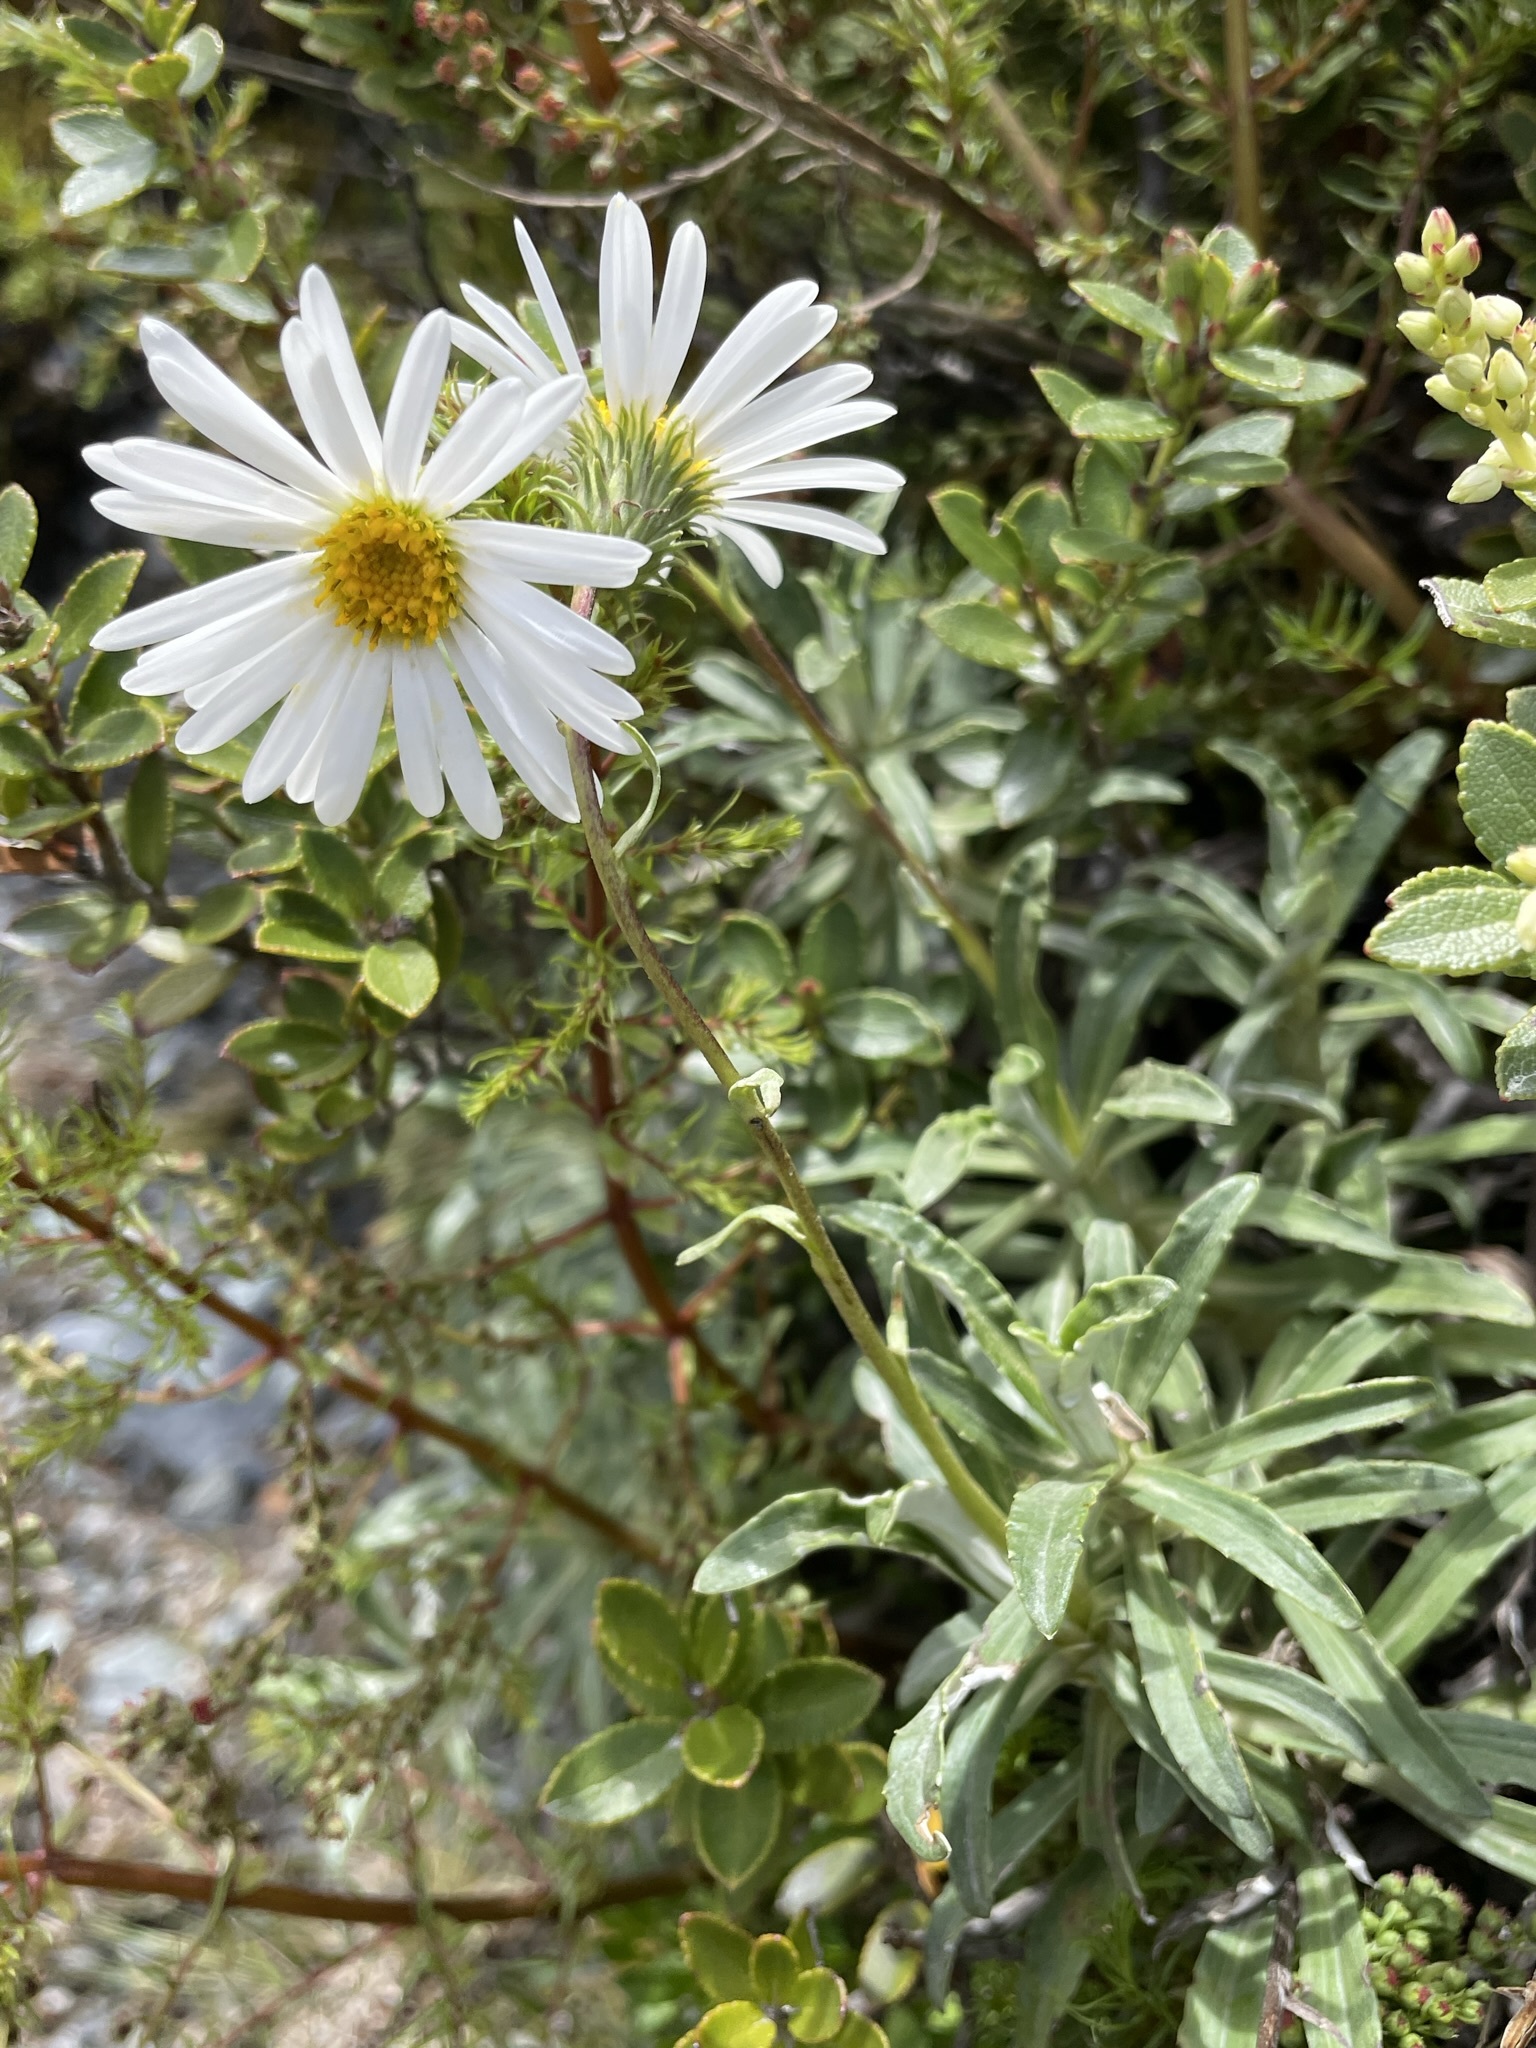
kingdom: Plantae
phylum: Tracheophyta
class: Magnoliopsida
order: Asterales
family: Asteraceae
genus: Celmisia
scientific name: Celmisia angustifolia
